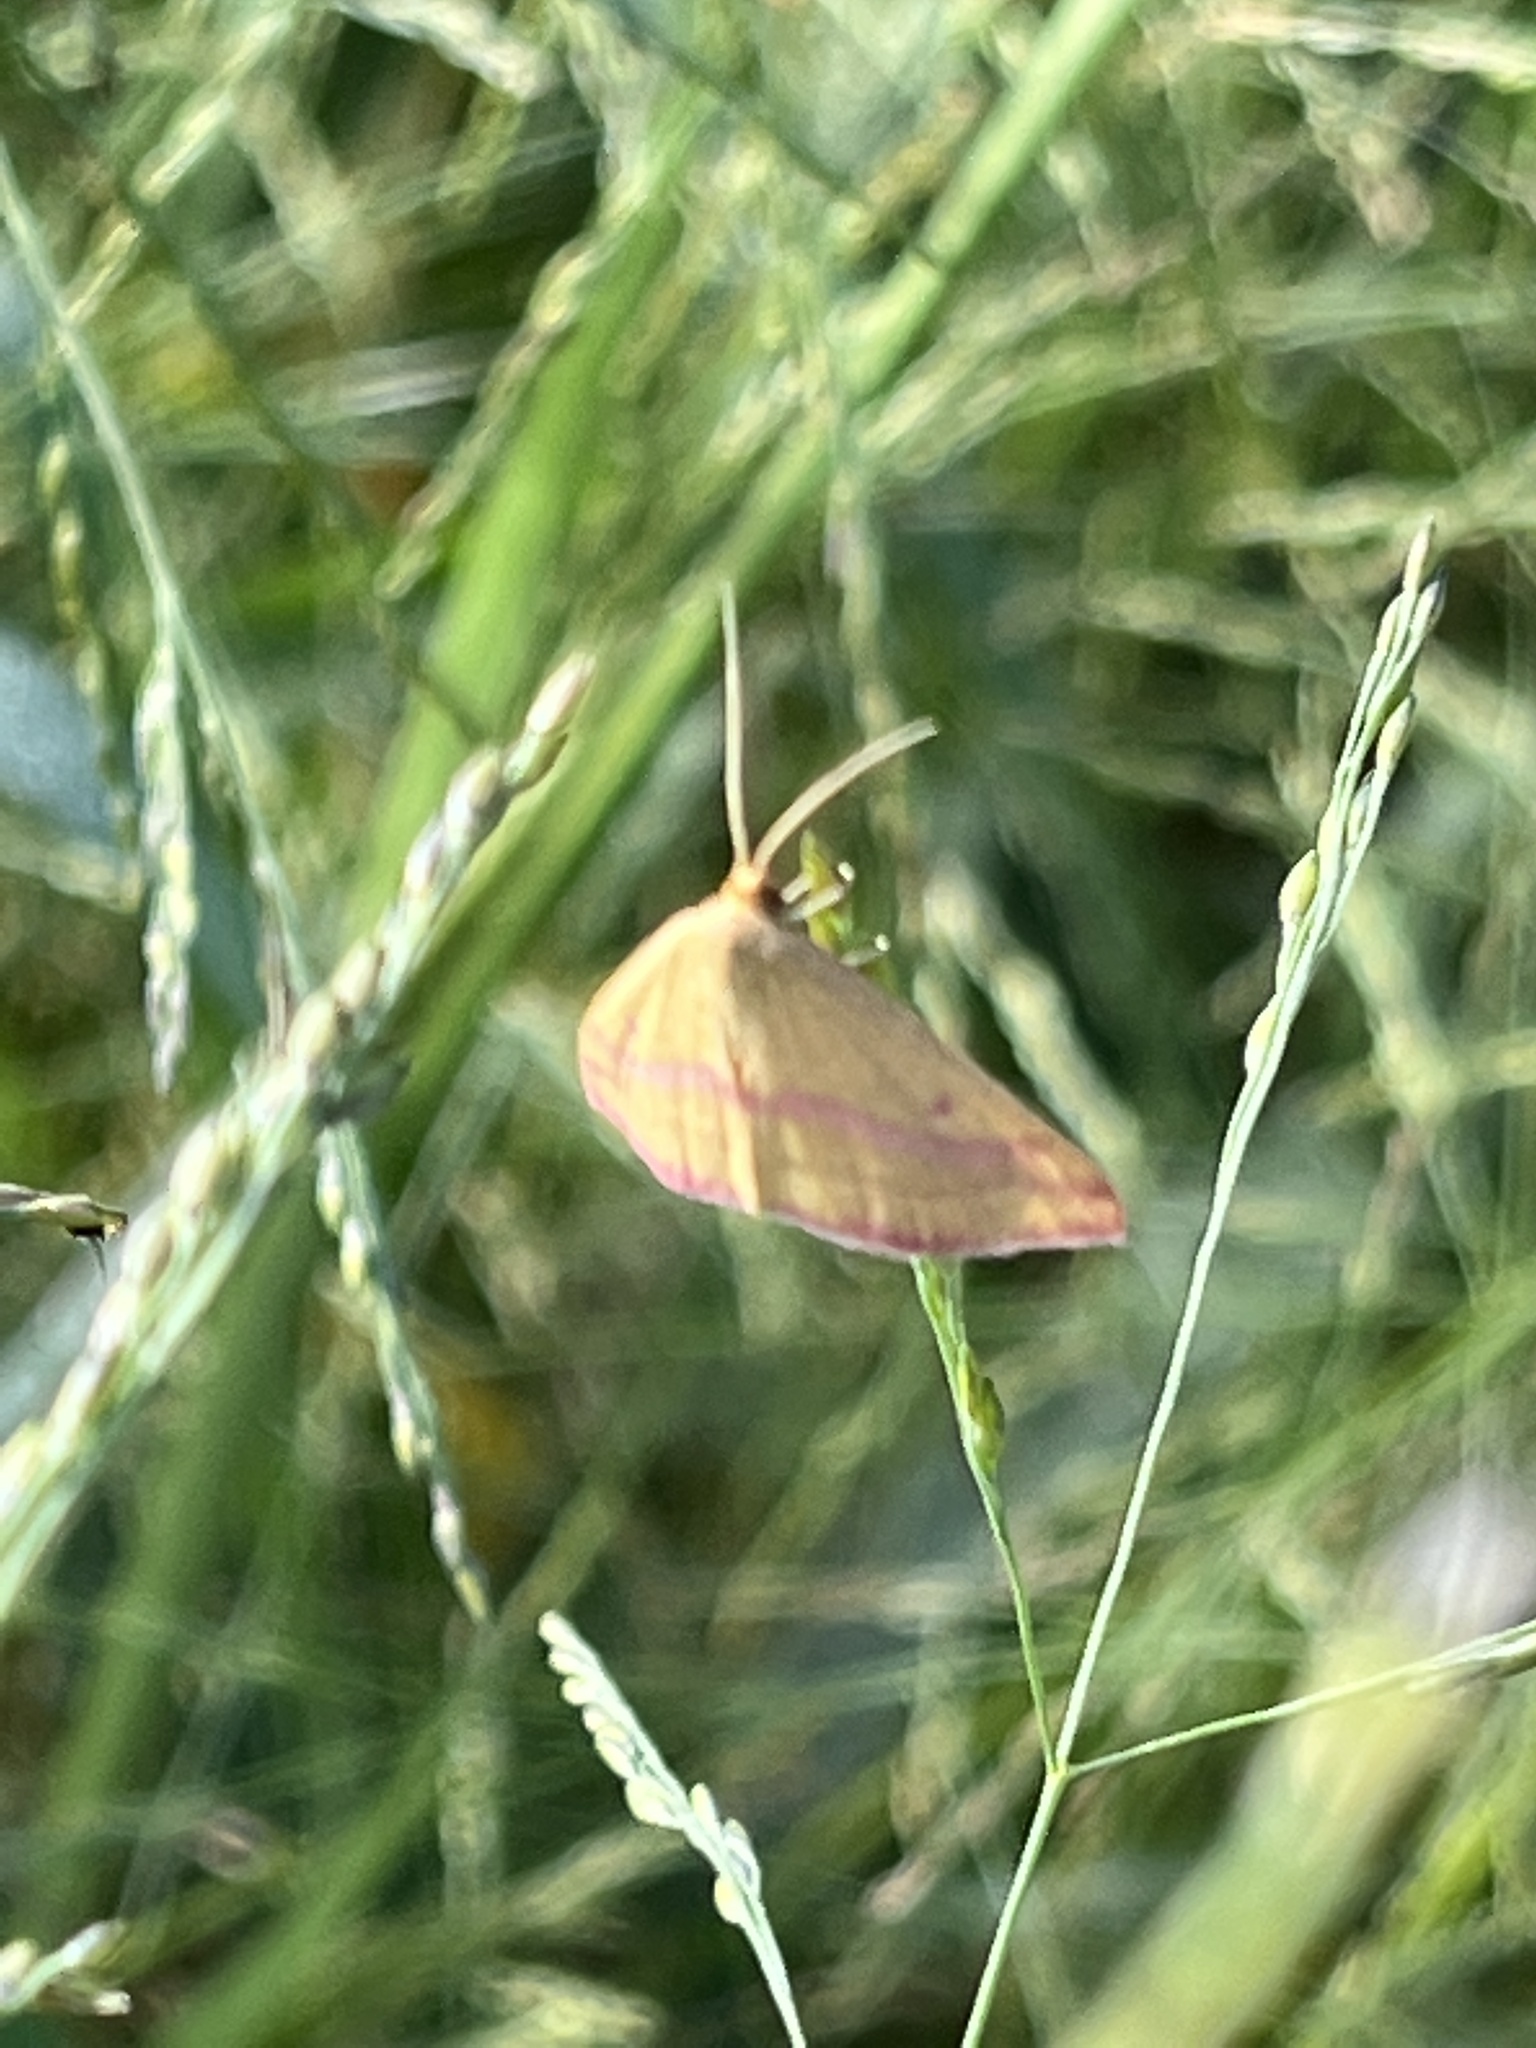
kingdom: Animalia
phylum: Arthropoda
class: Insecta
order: Lepidoptera
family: Geometridae
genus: Haematopis
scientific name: Haematopis grataria
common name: Chickweed geometer
